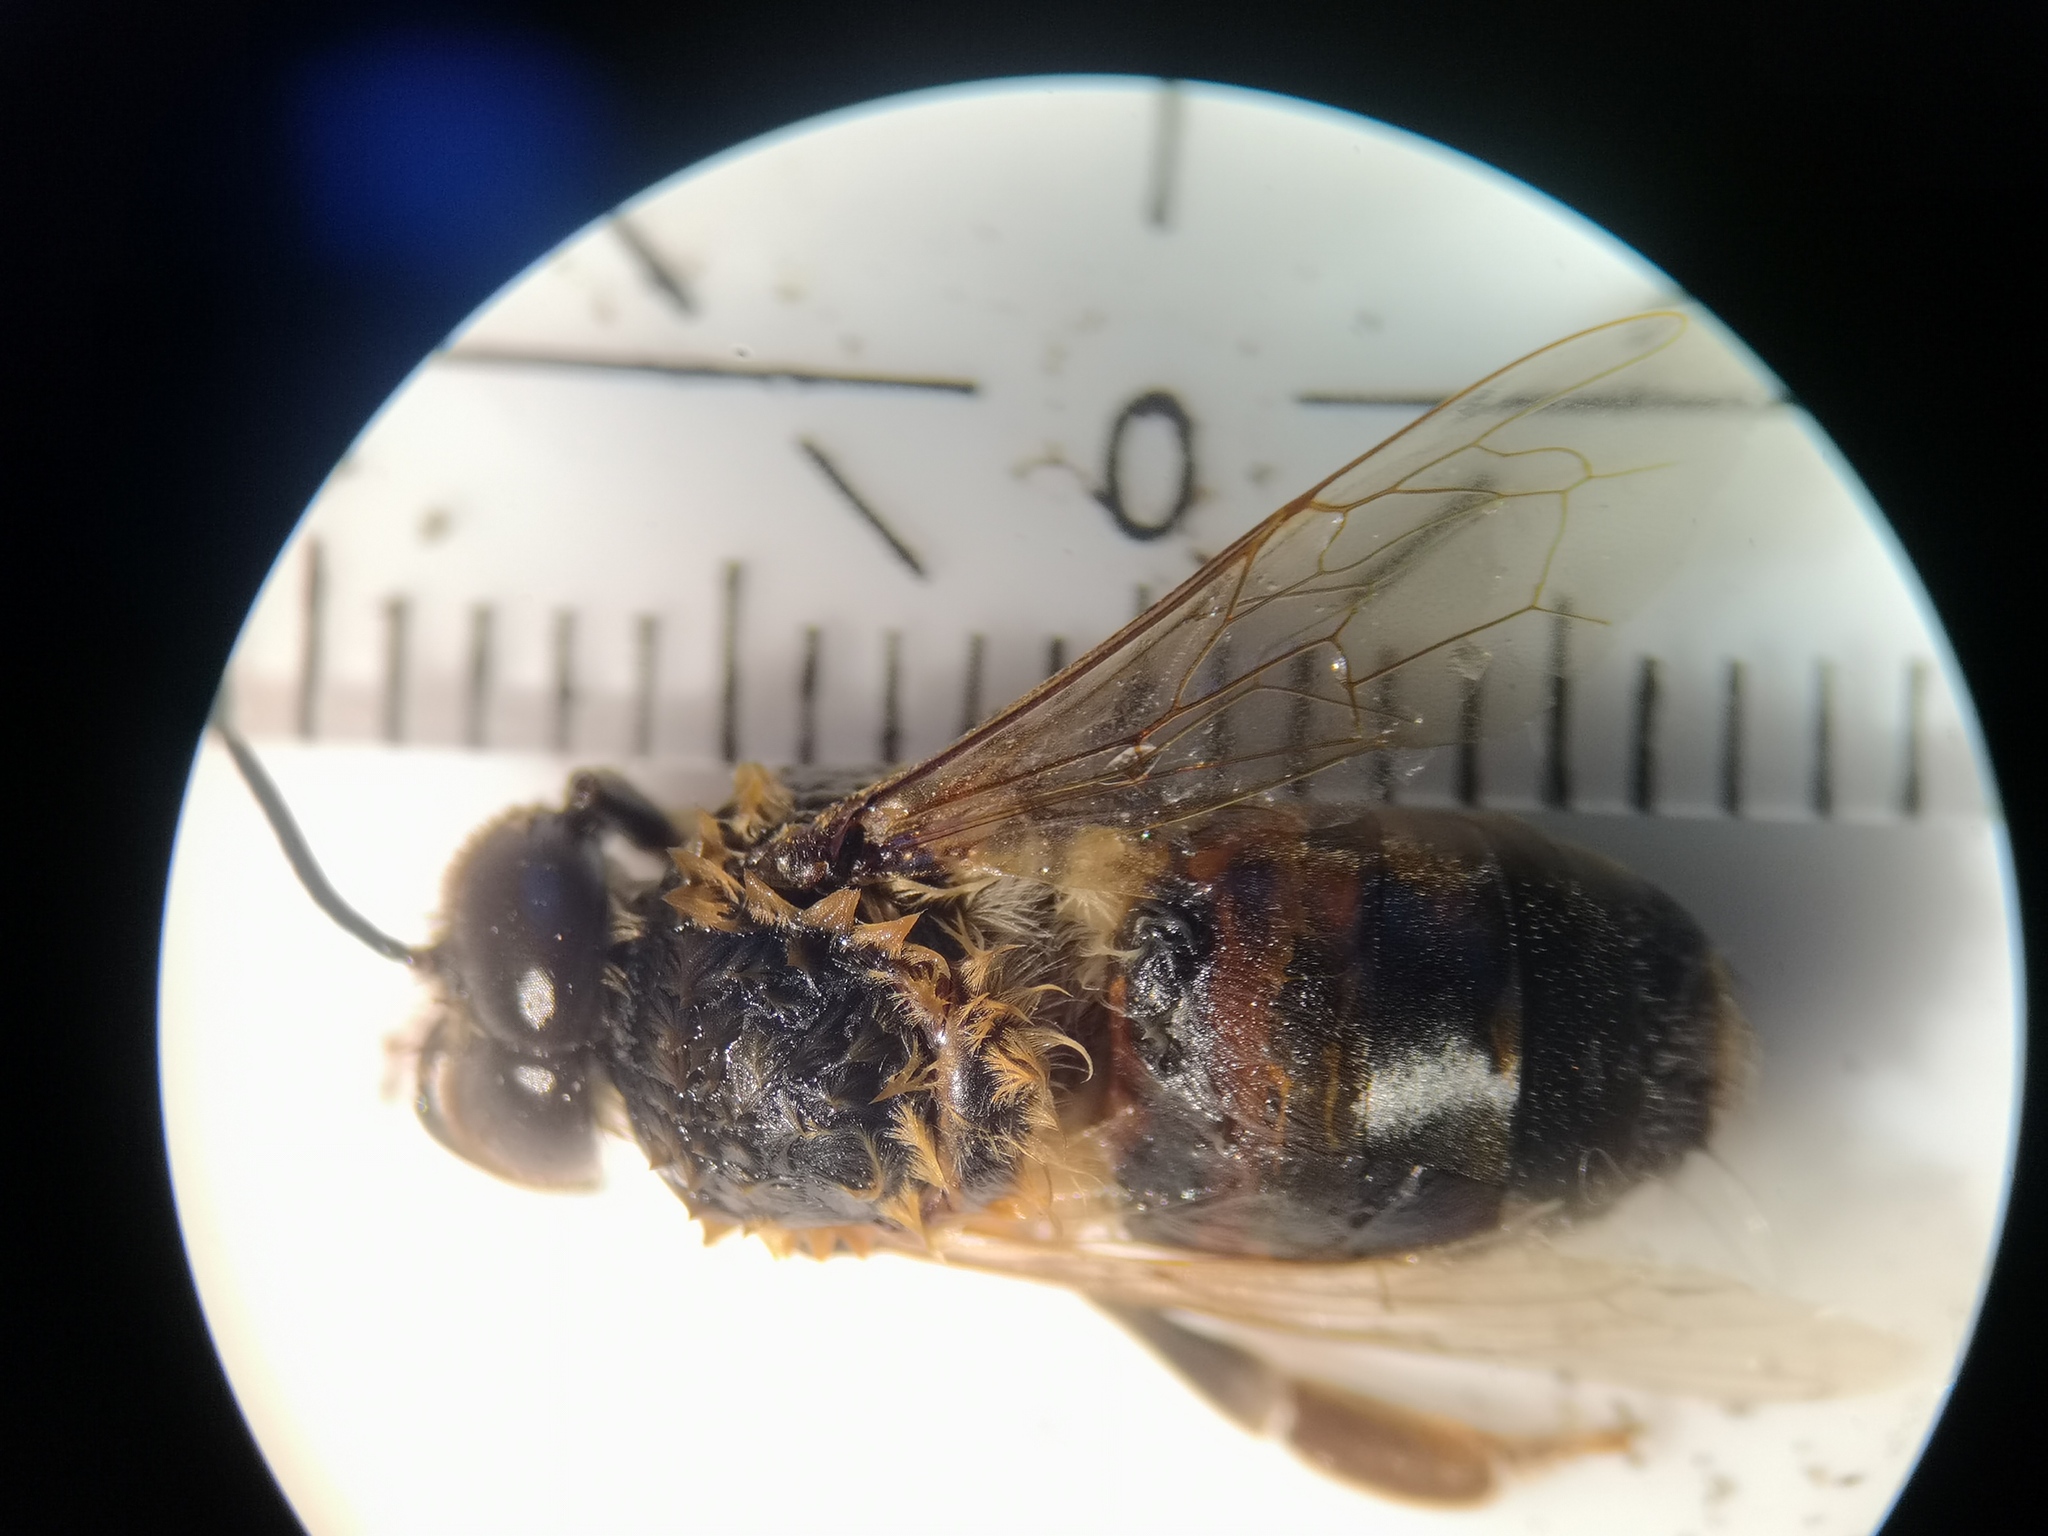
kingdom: Animalia
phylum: Arthropoda
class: Insecta
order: Hymenoptera
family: Apidae
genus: Apis
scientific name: Apis mellifera
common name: Honey bee
